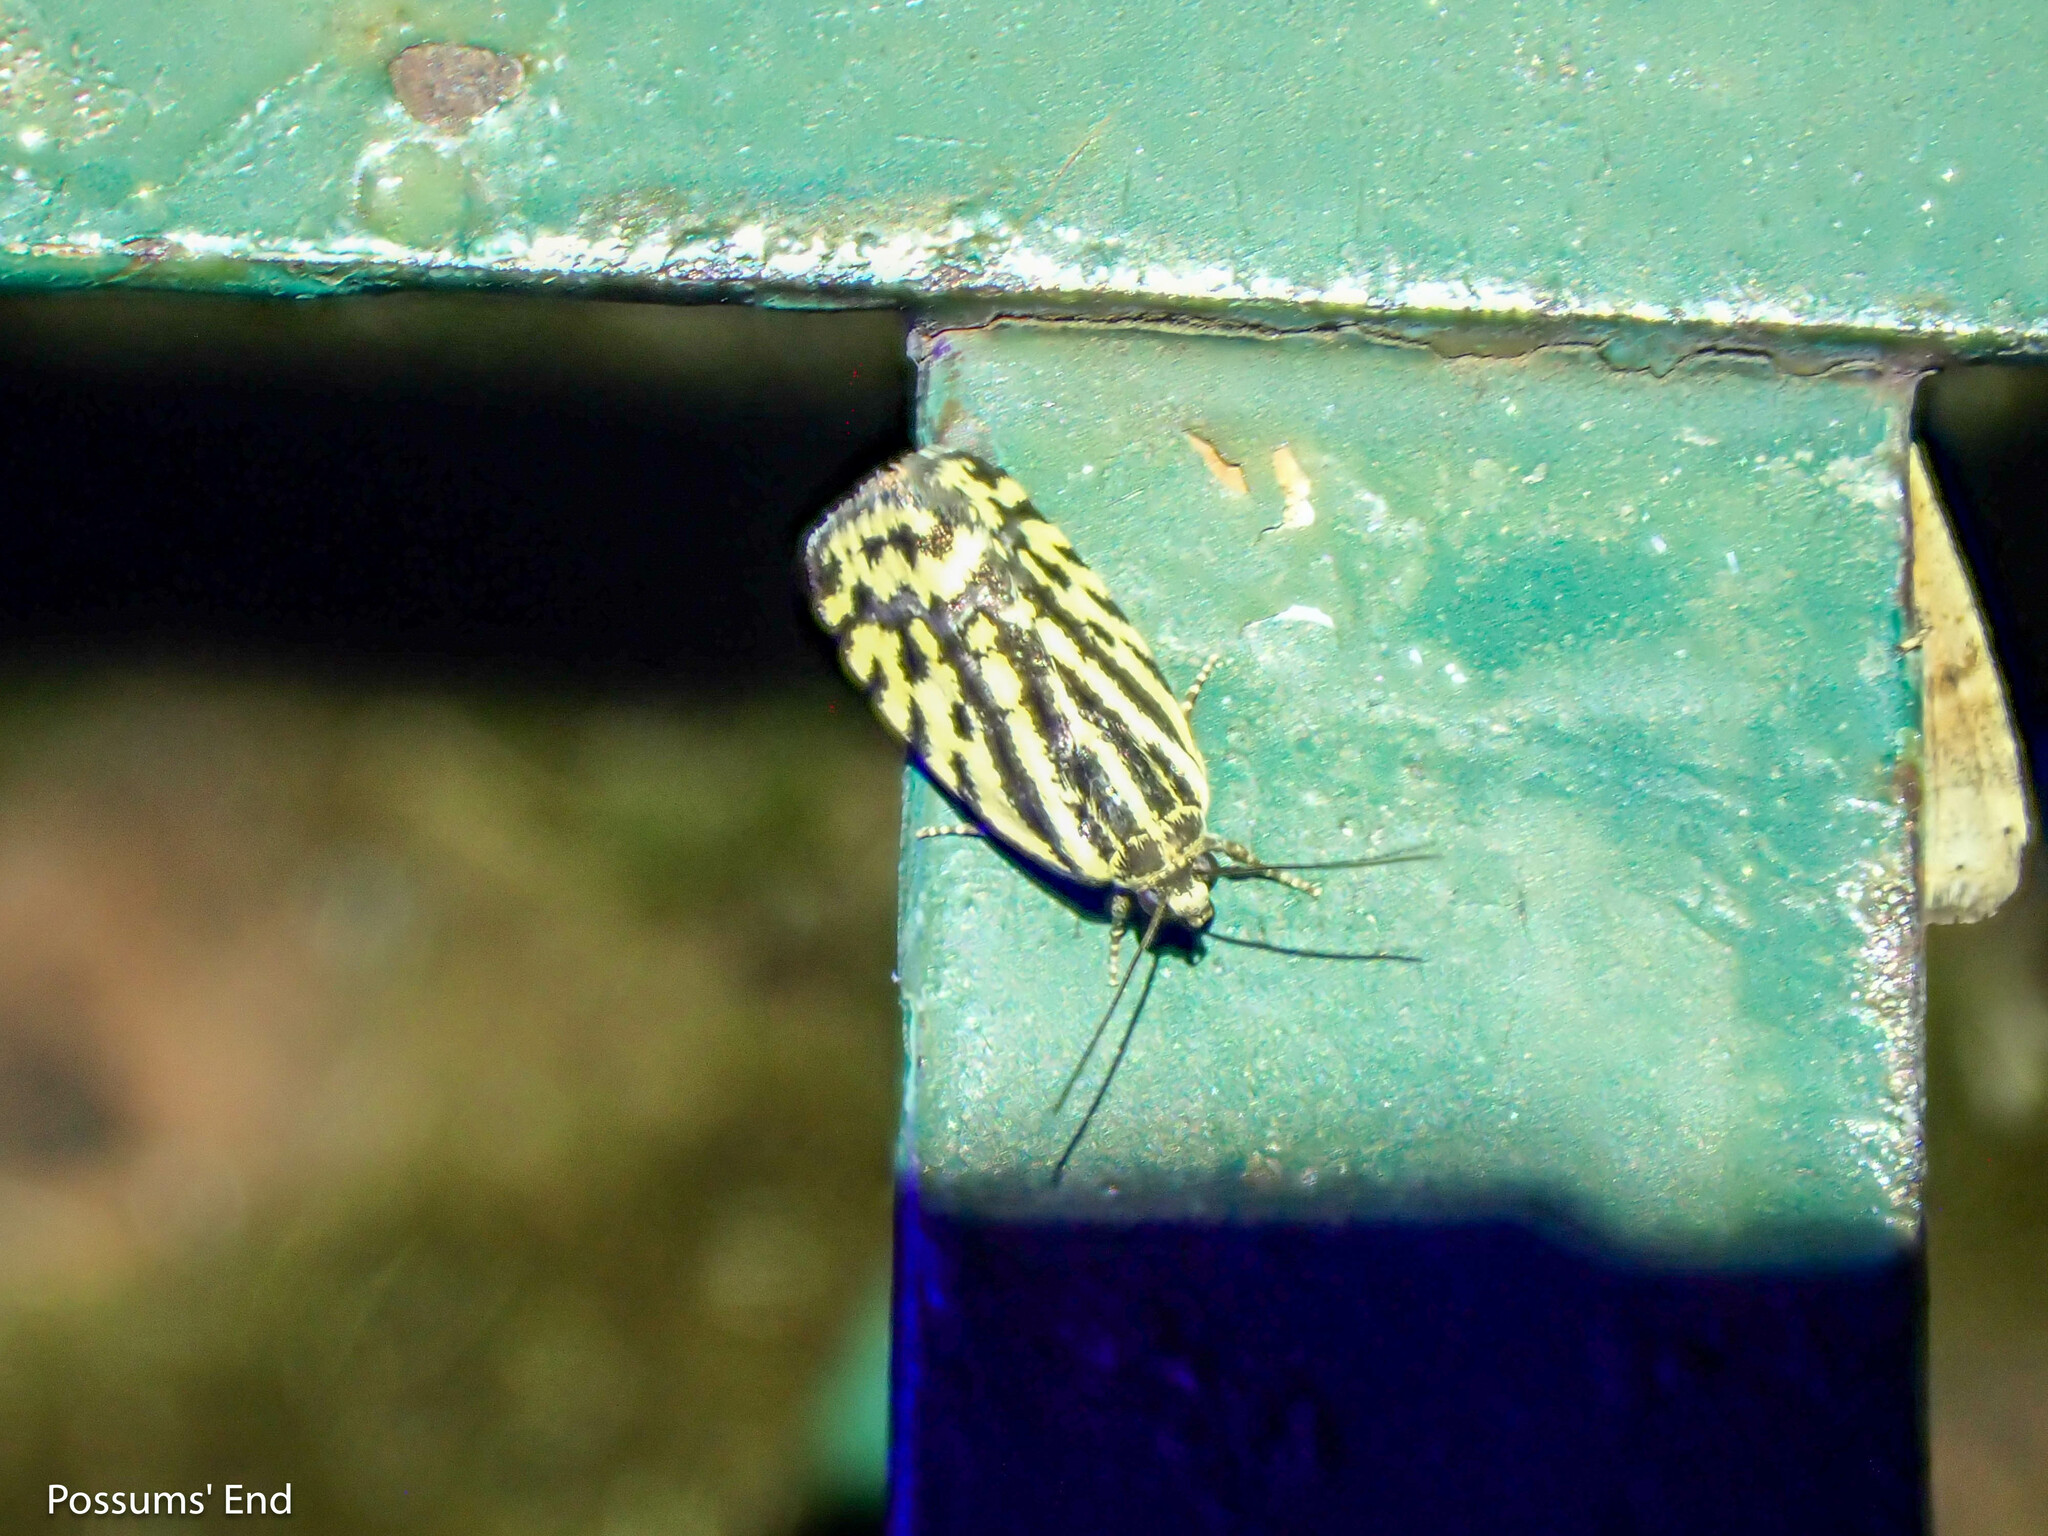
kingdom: Animalia
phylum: Arthropoda
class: Insecta
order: Lepidoptera
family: Noctuidae
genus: Acontia
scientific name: Acontia trabealis
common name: Spotted sulphur
